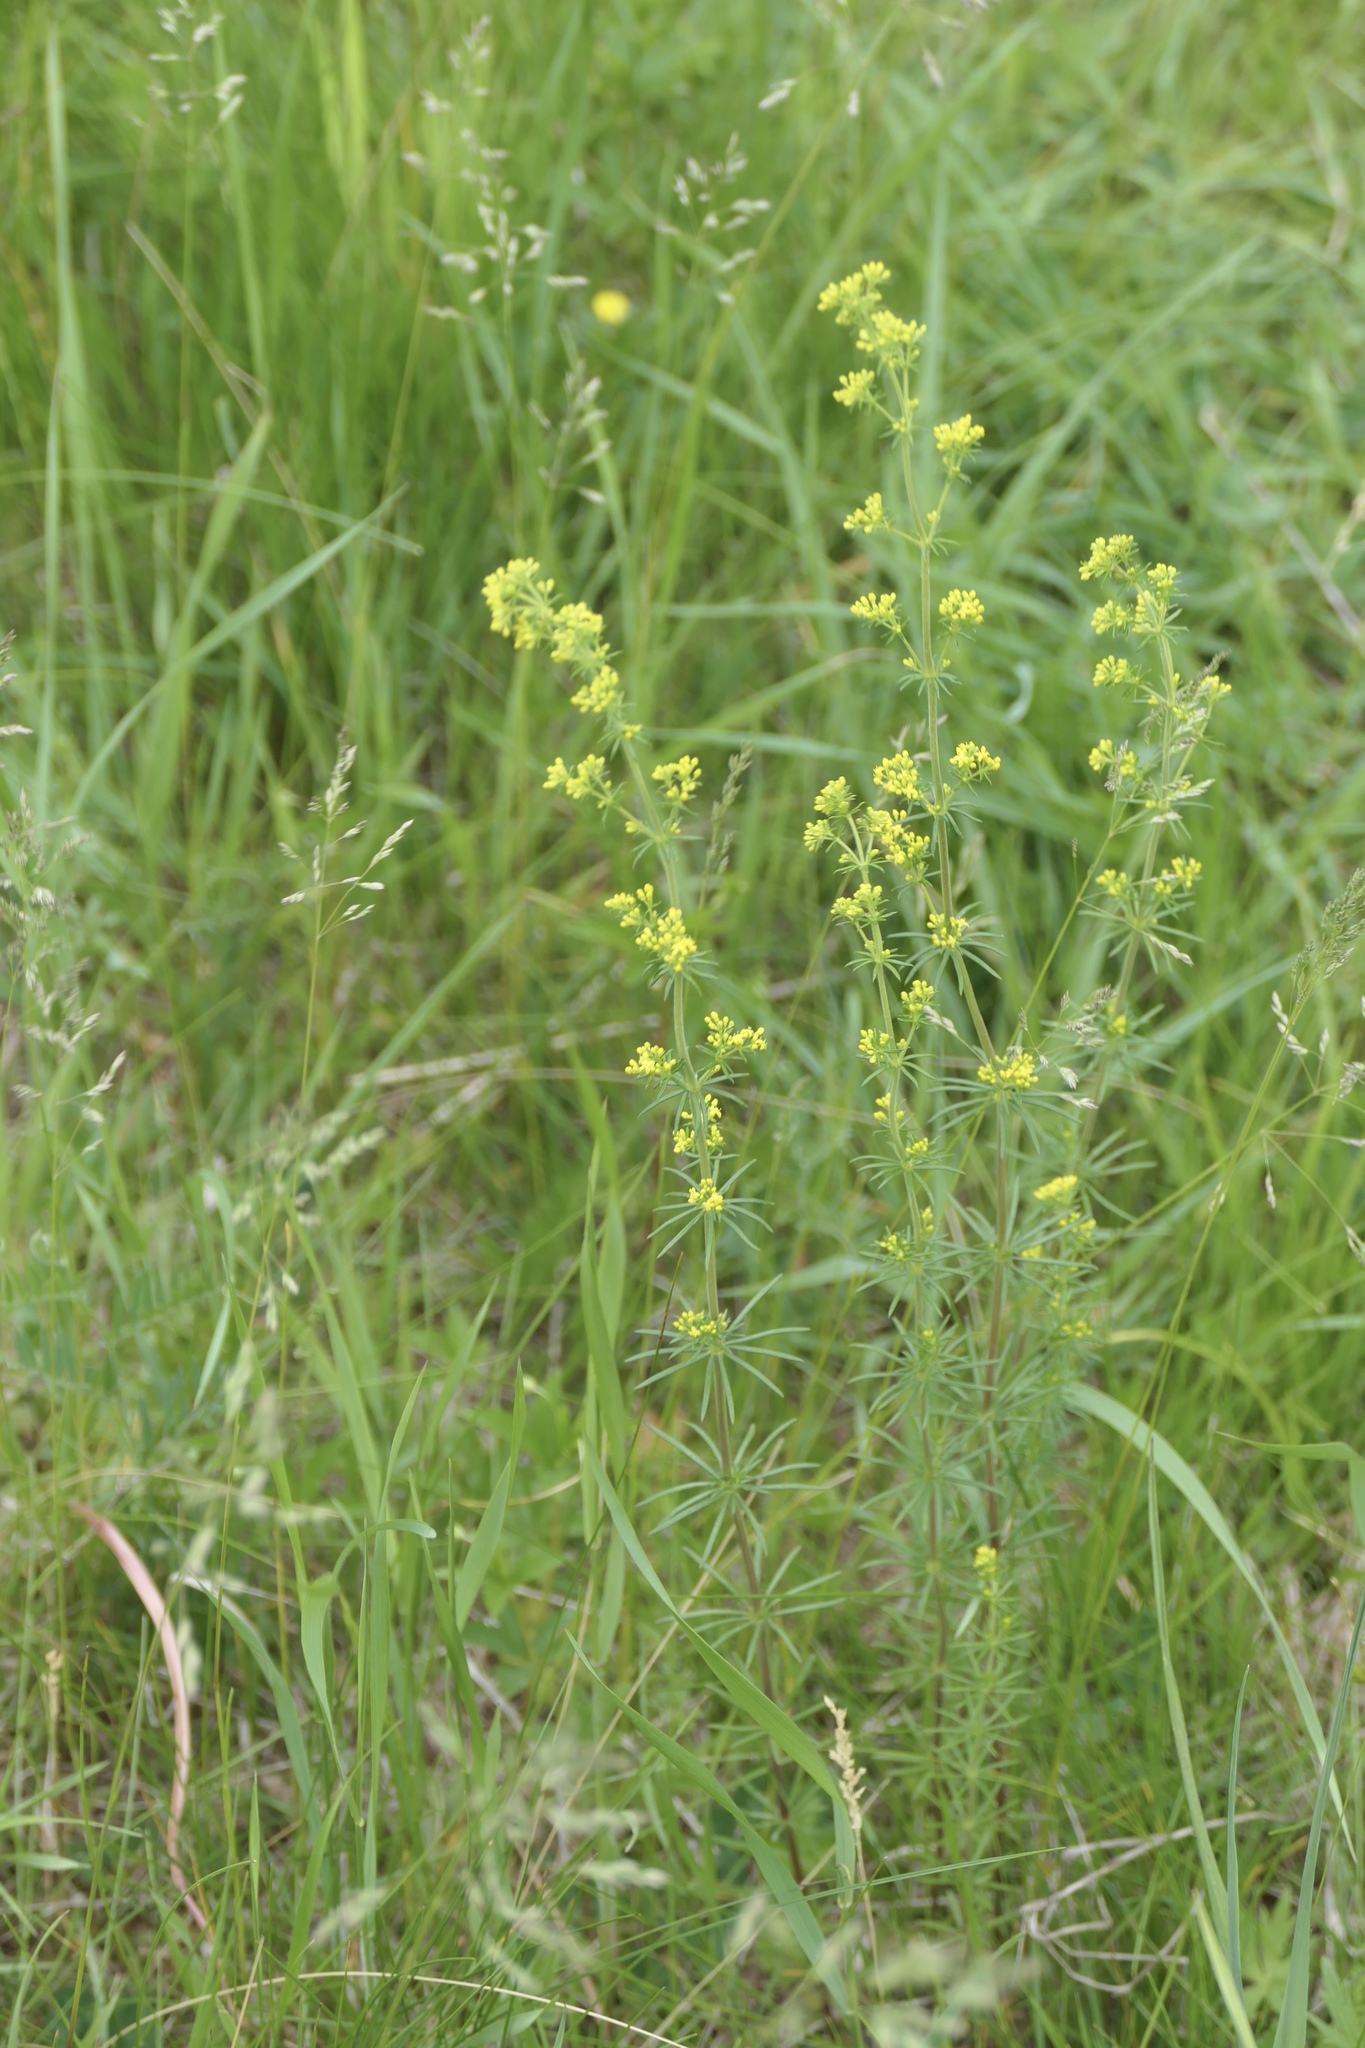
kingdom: Plantae
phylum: Tracheophyta
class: Magnoliopsida
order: Gentianales
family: Rubiaceae
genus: Galium
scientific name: Galium verum
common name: Lady's bedstraw
